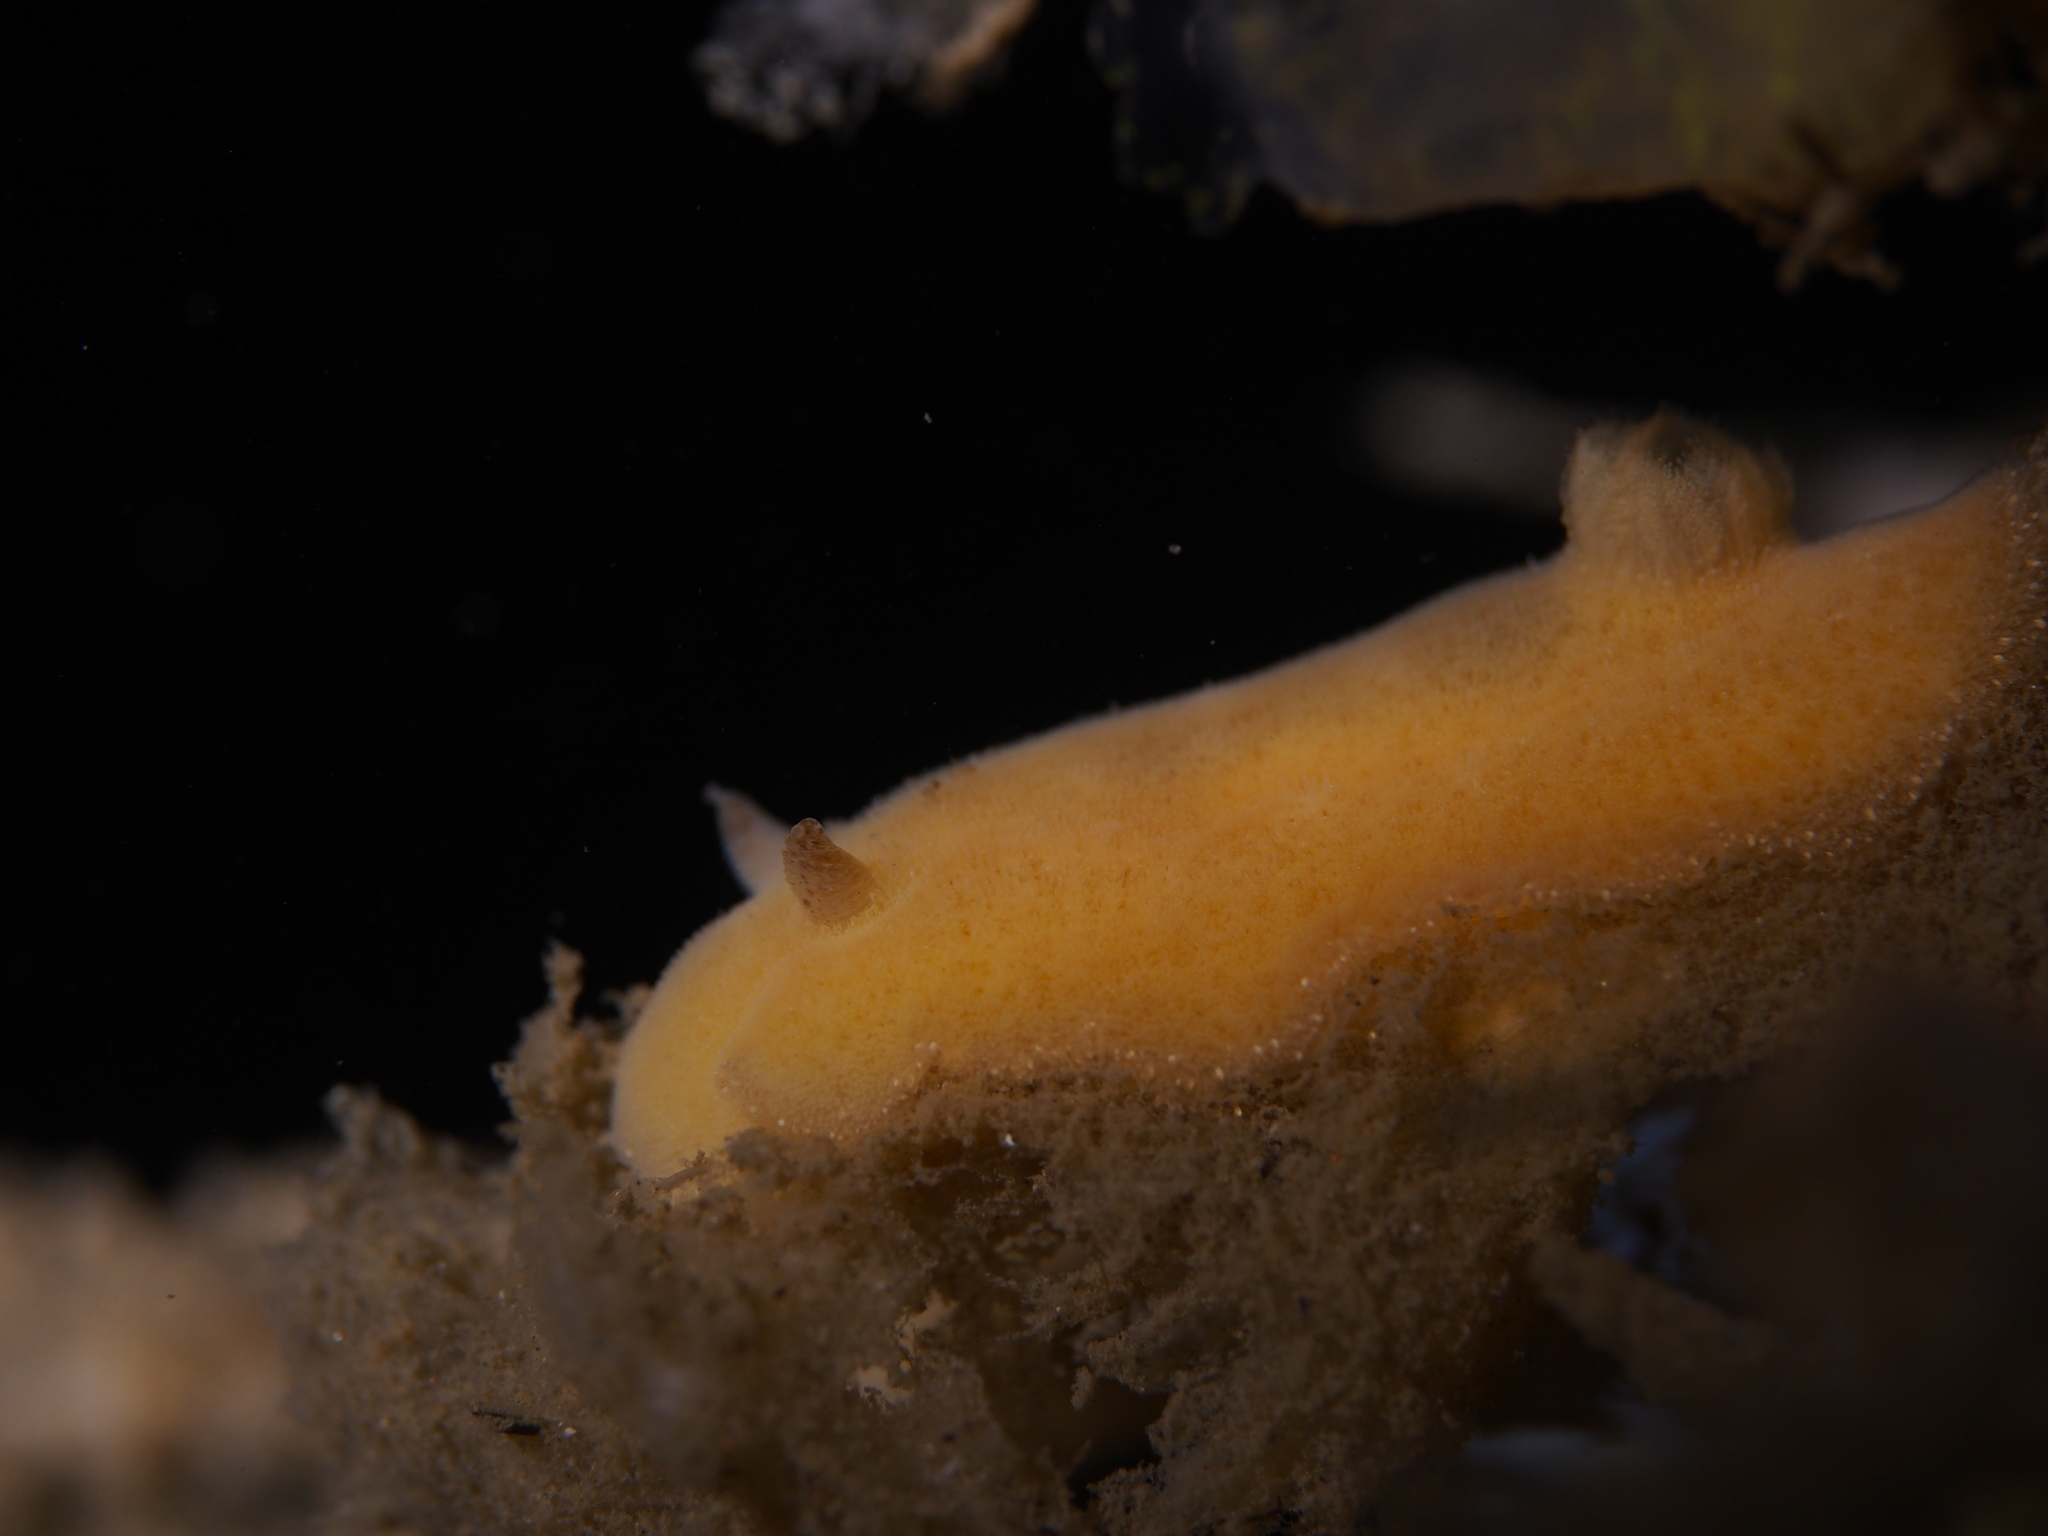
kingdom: Animalia
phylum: Mollusca
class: Gastropoda
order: Nudibranchia
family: Discodorididae
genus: Jorunna
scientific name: Jorunna tomentosa
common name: Grey sea slug
